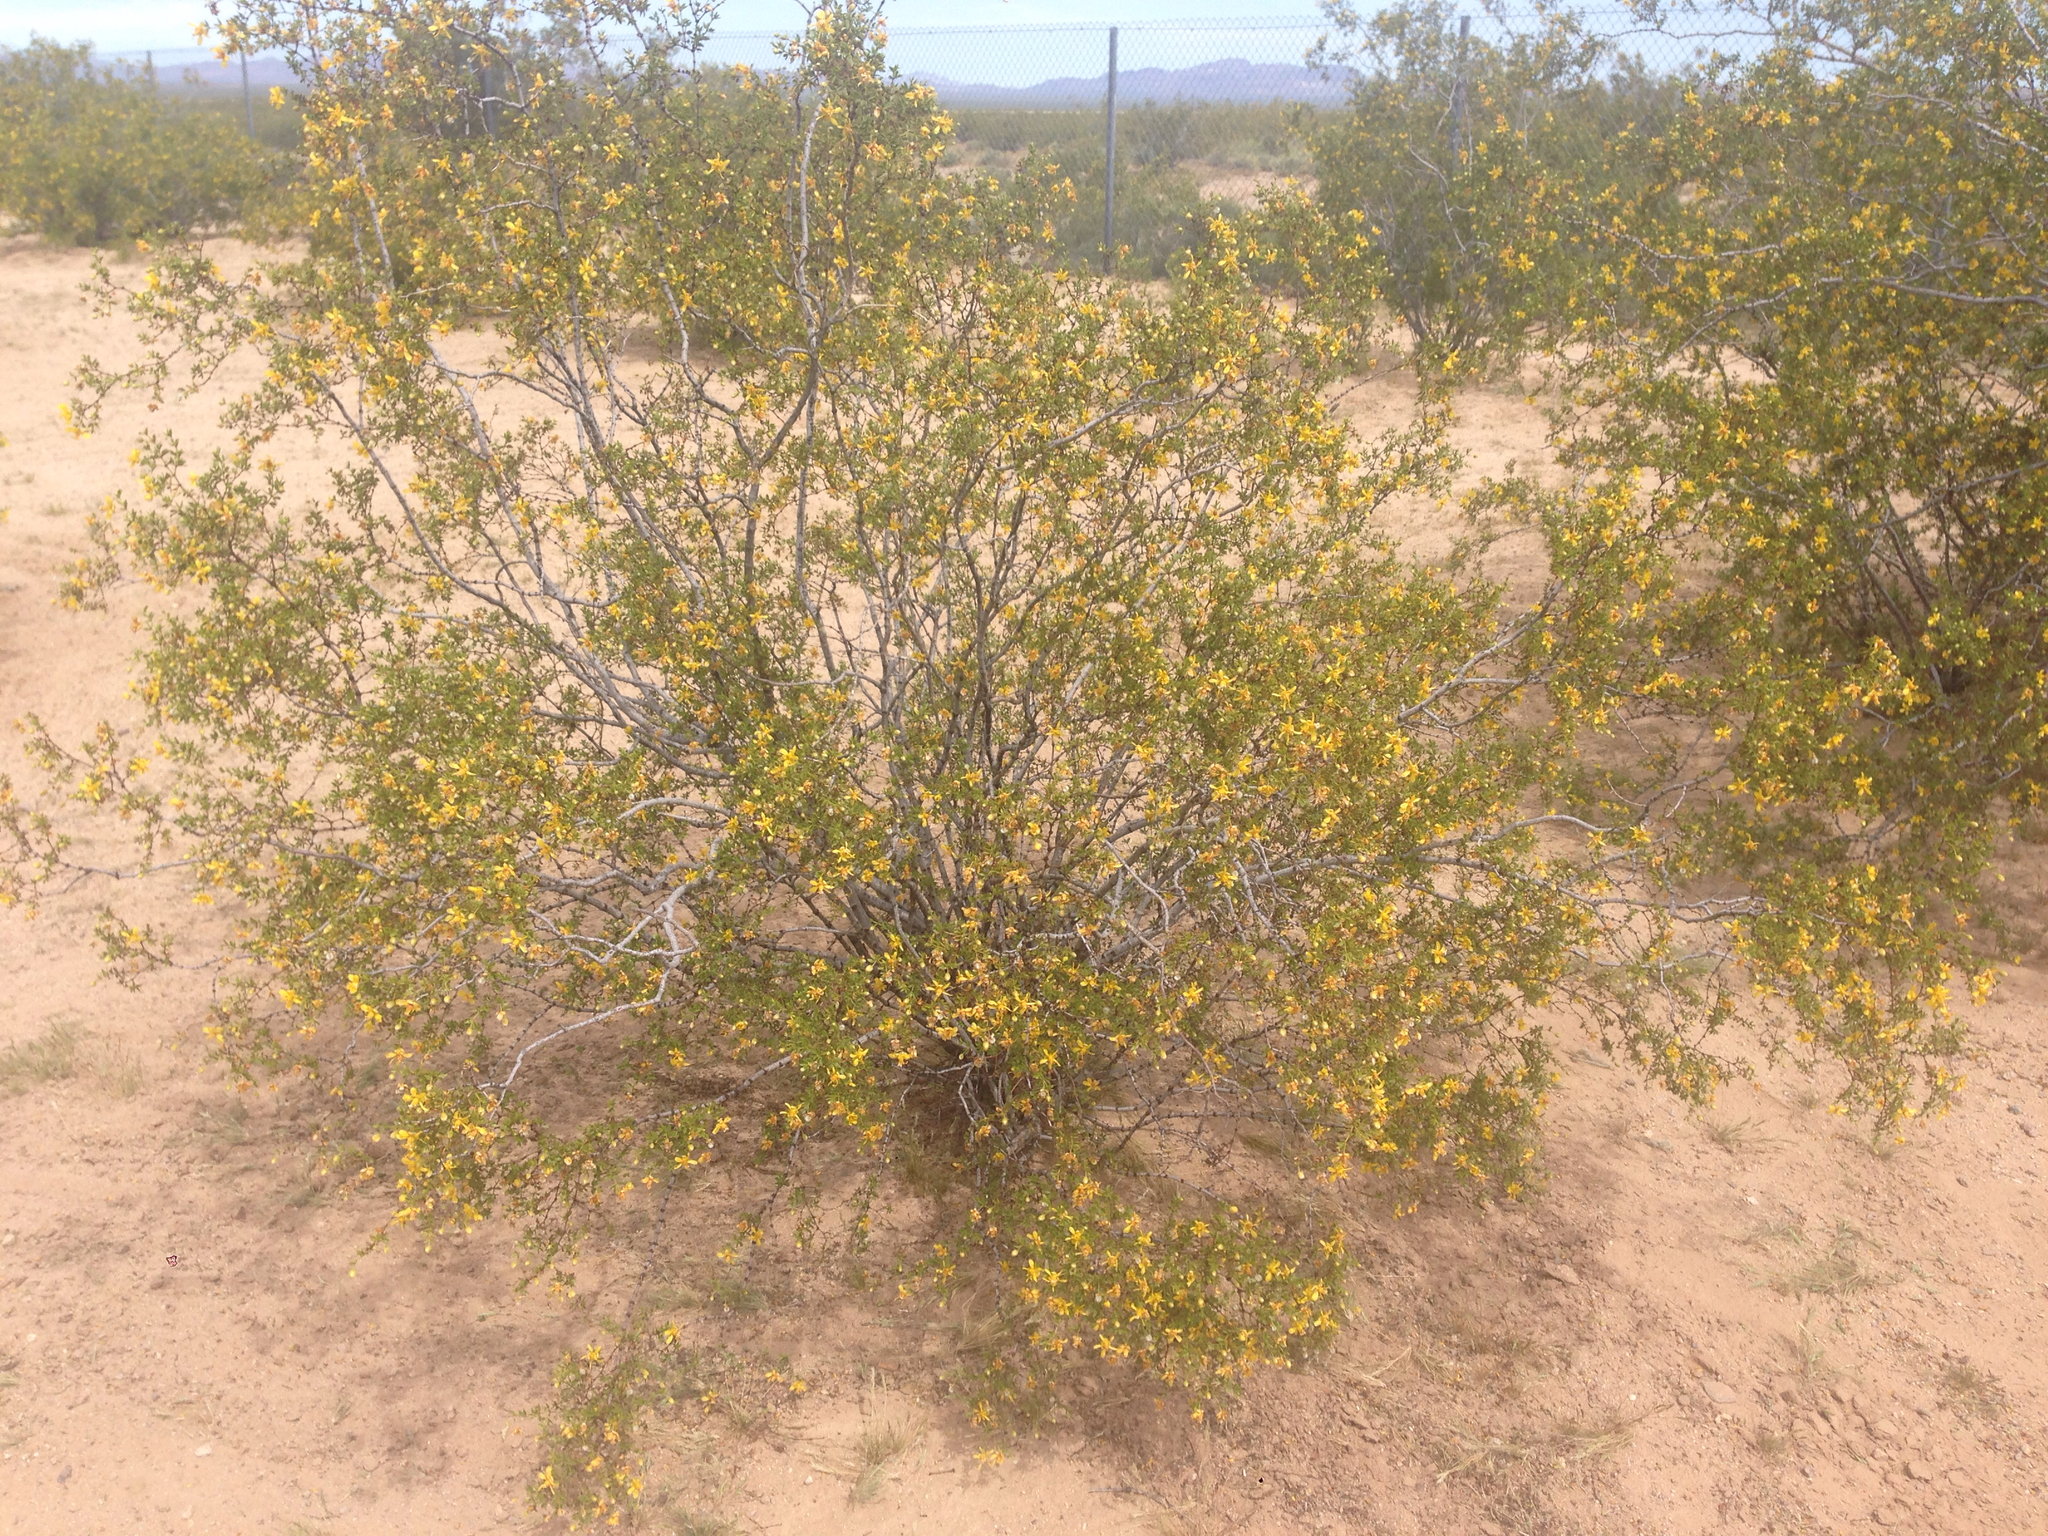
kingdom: Plantae
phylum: Tracheophyta
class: Magnoliopsida
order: Zygophyllales
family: Zygophyllaceae
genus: Larrea
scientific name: Larrea tridentata
